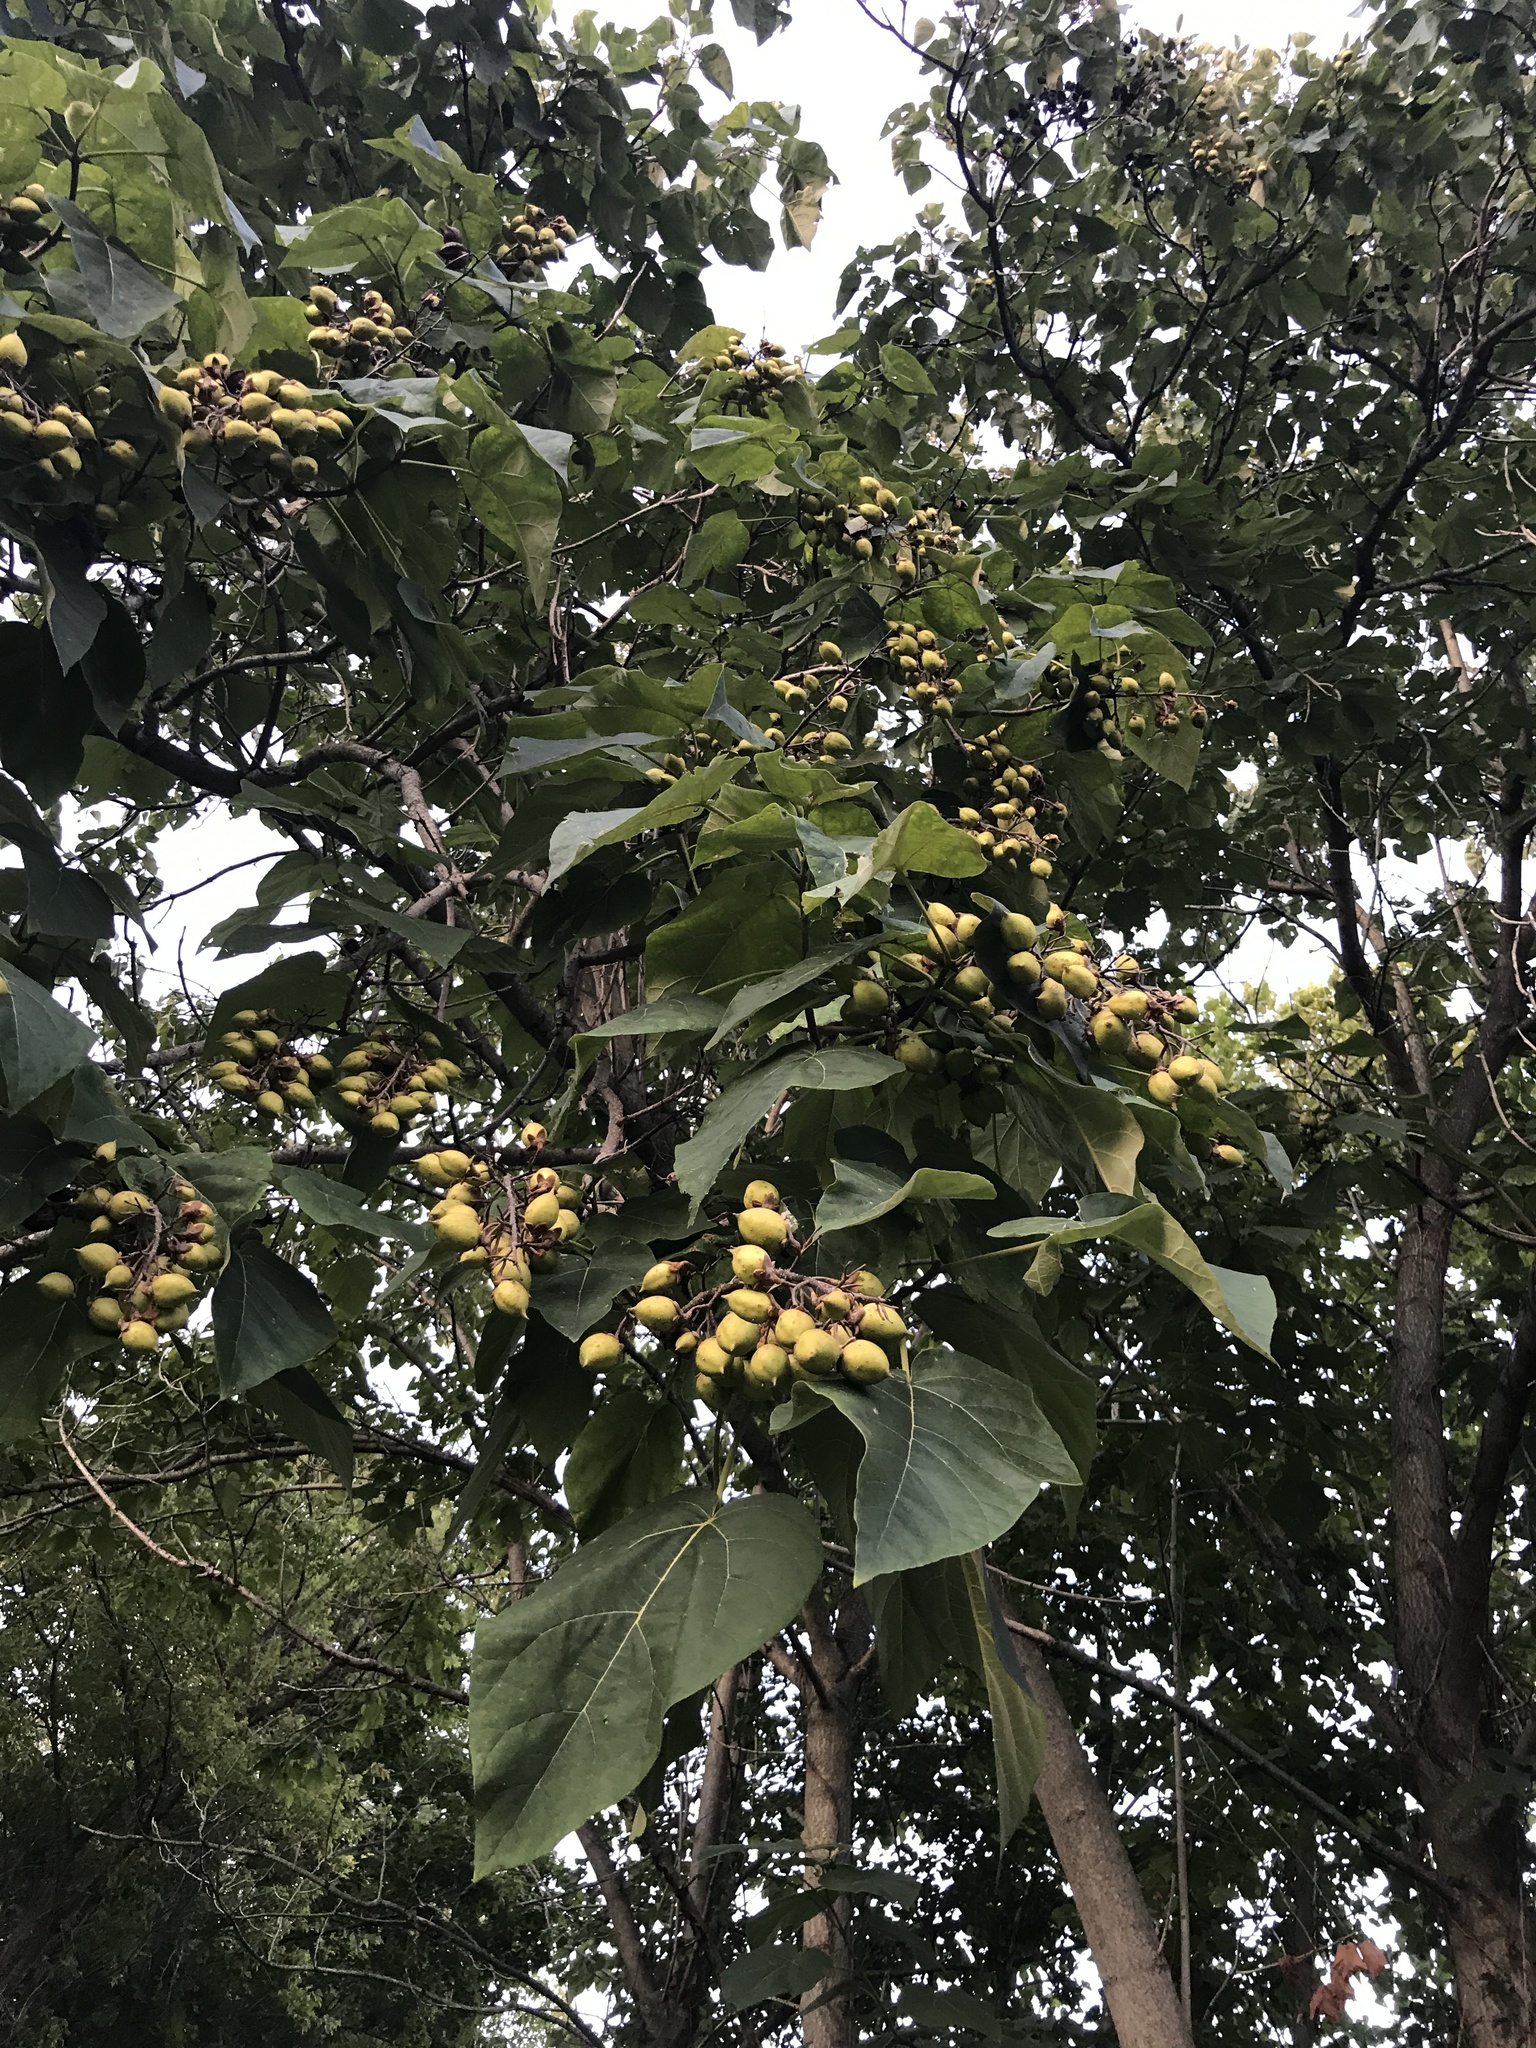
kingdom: Plantae
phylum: Tracheophyta
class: Magnoliopsida
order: Lamiales
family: Paulowniaceae
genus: Paulownia
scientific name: Paulownia tomentosa
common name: Foxglove-tree
